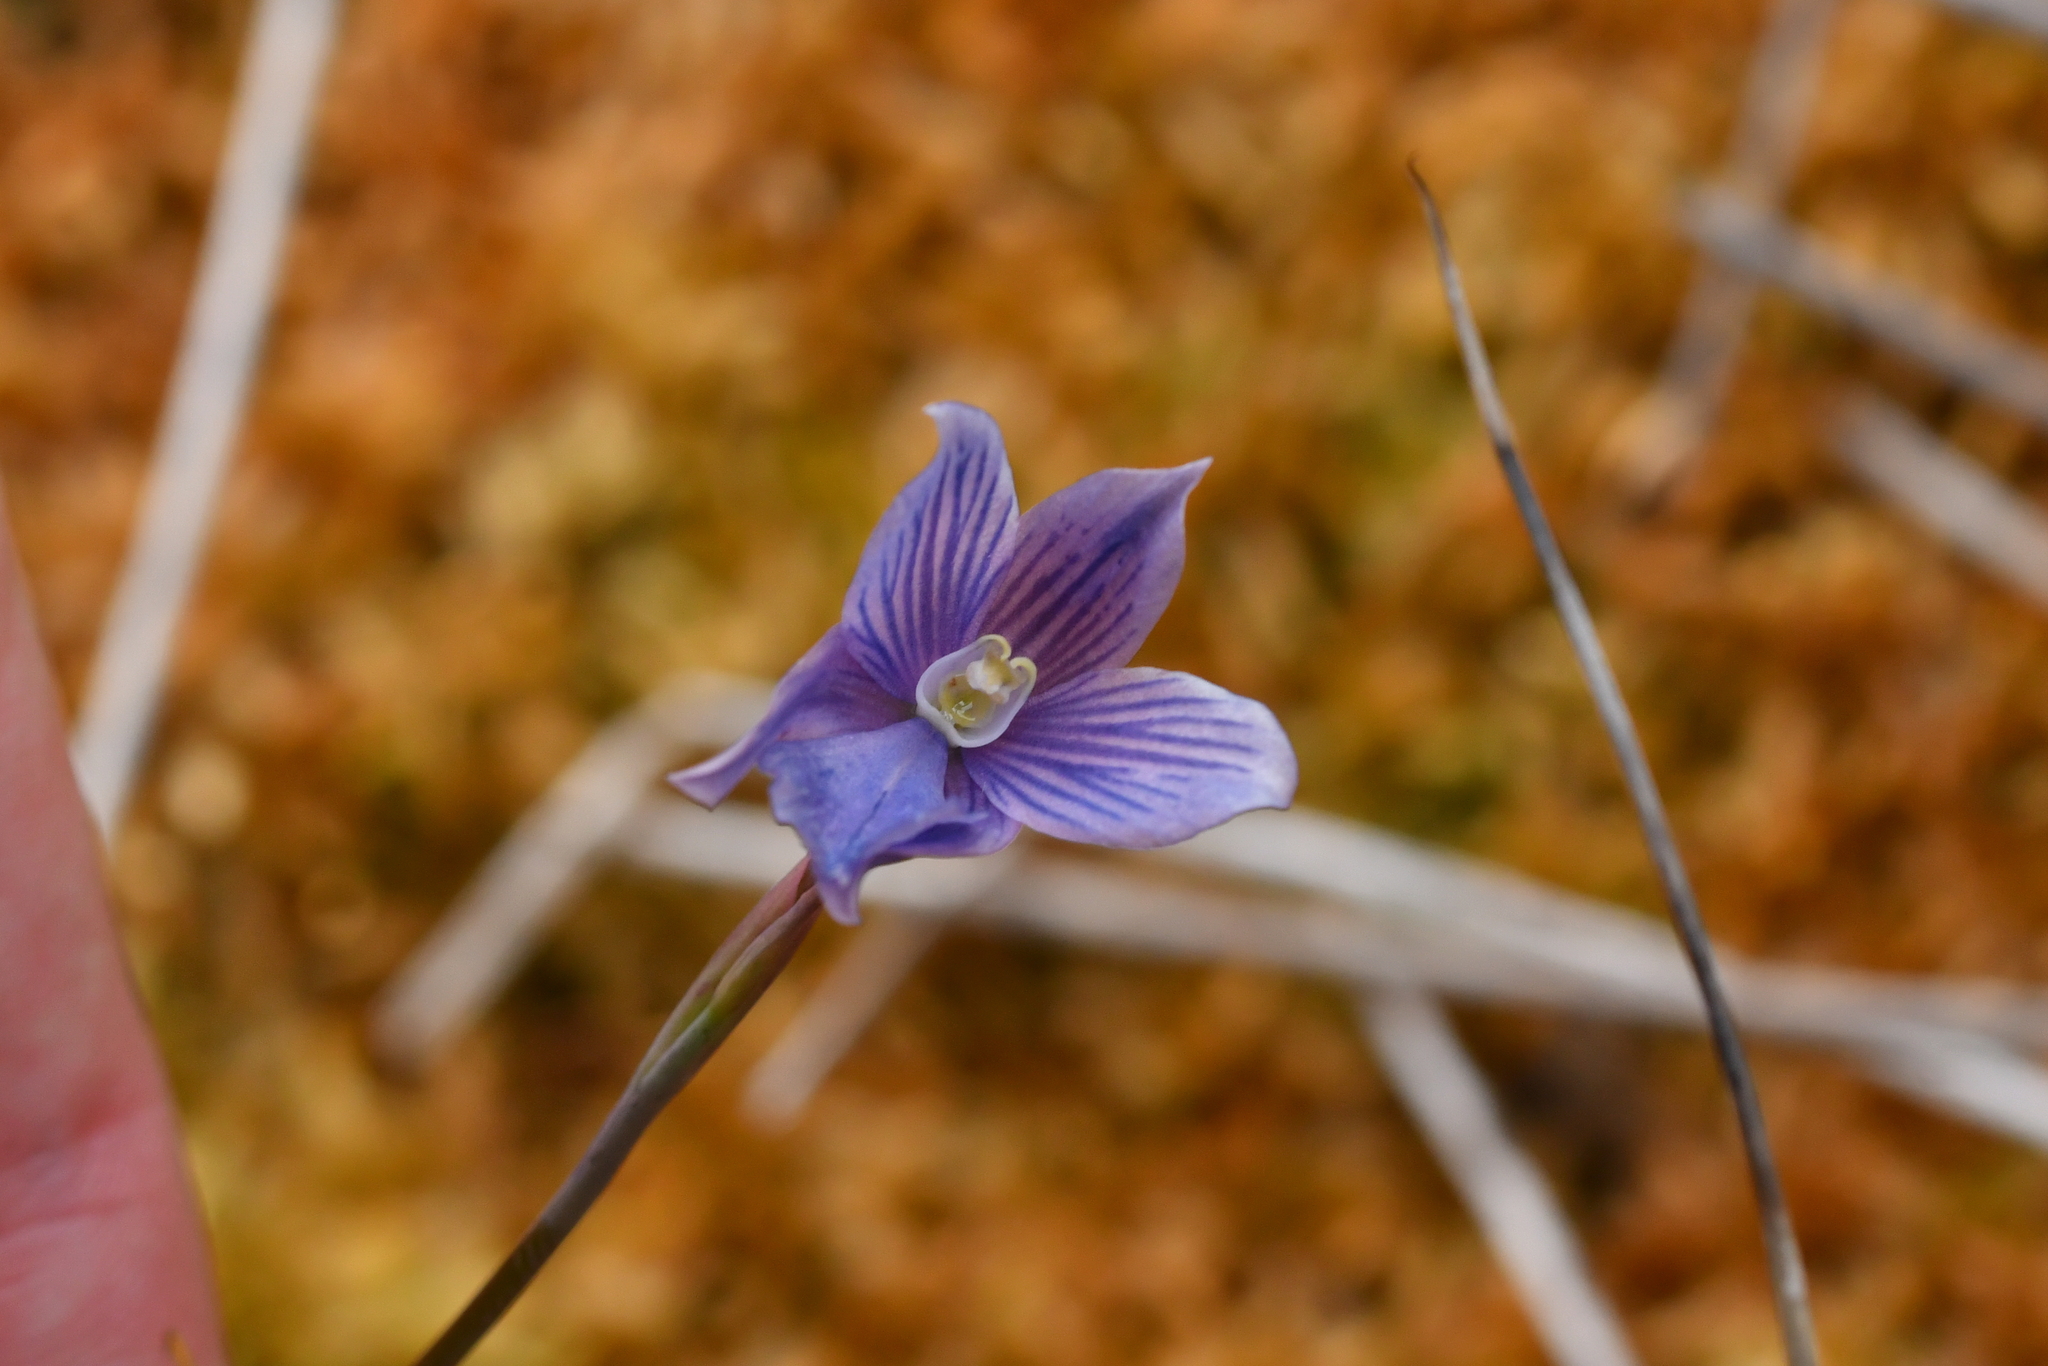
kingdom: Plantae
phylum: Tracheophyta
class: Liliopsida
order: Asparagales
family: Orchidaceae
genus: Thelymitra
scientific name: Thelymitra cyanea
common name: Blue sun-orchid
